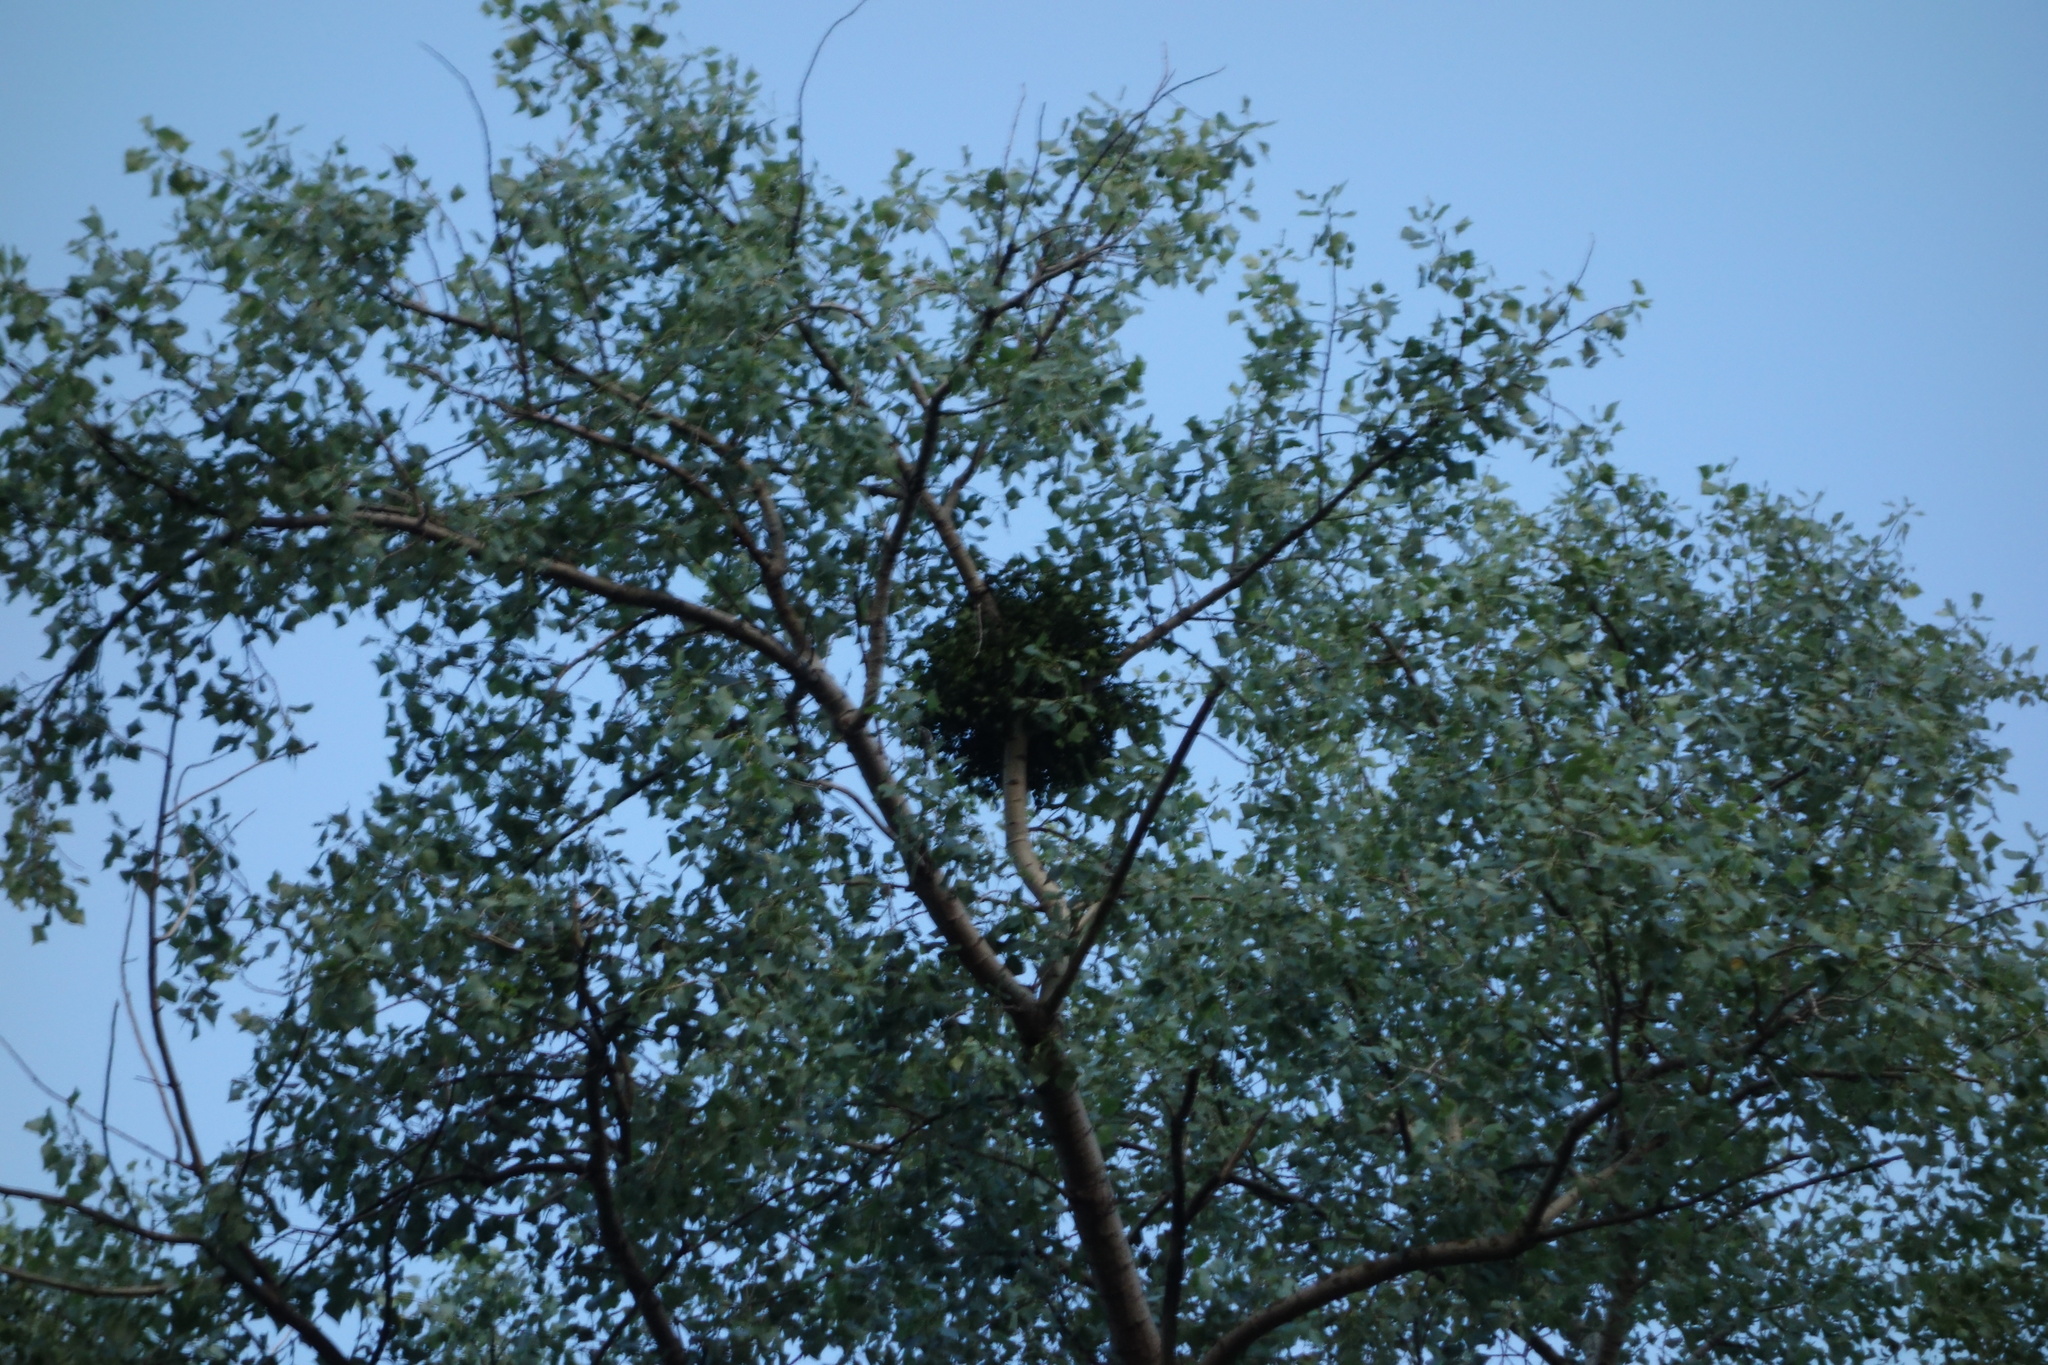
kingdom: Plantae
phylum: Tracheophyta
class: Magnoliopsida
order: Santalales
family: Viscaceae
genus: Viscum
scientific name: Viscum album
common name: Mistletoe
